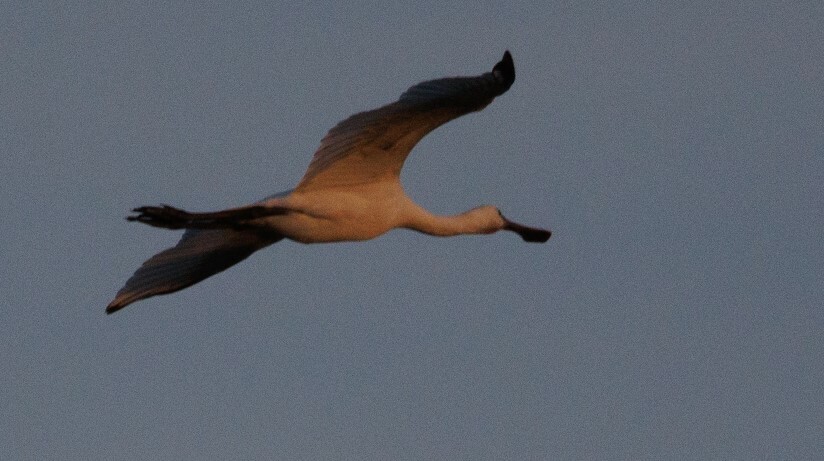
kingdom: Animalia
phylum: Chordata
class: Aves
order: Pelecaniformes
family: Threskiornithidae
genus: Platalea
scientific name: Platalea leucorodia
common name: Eurasian spoonbill
